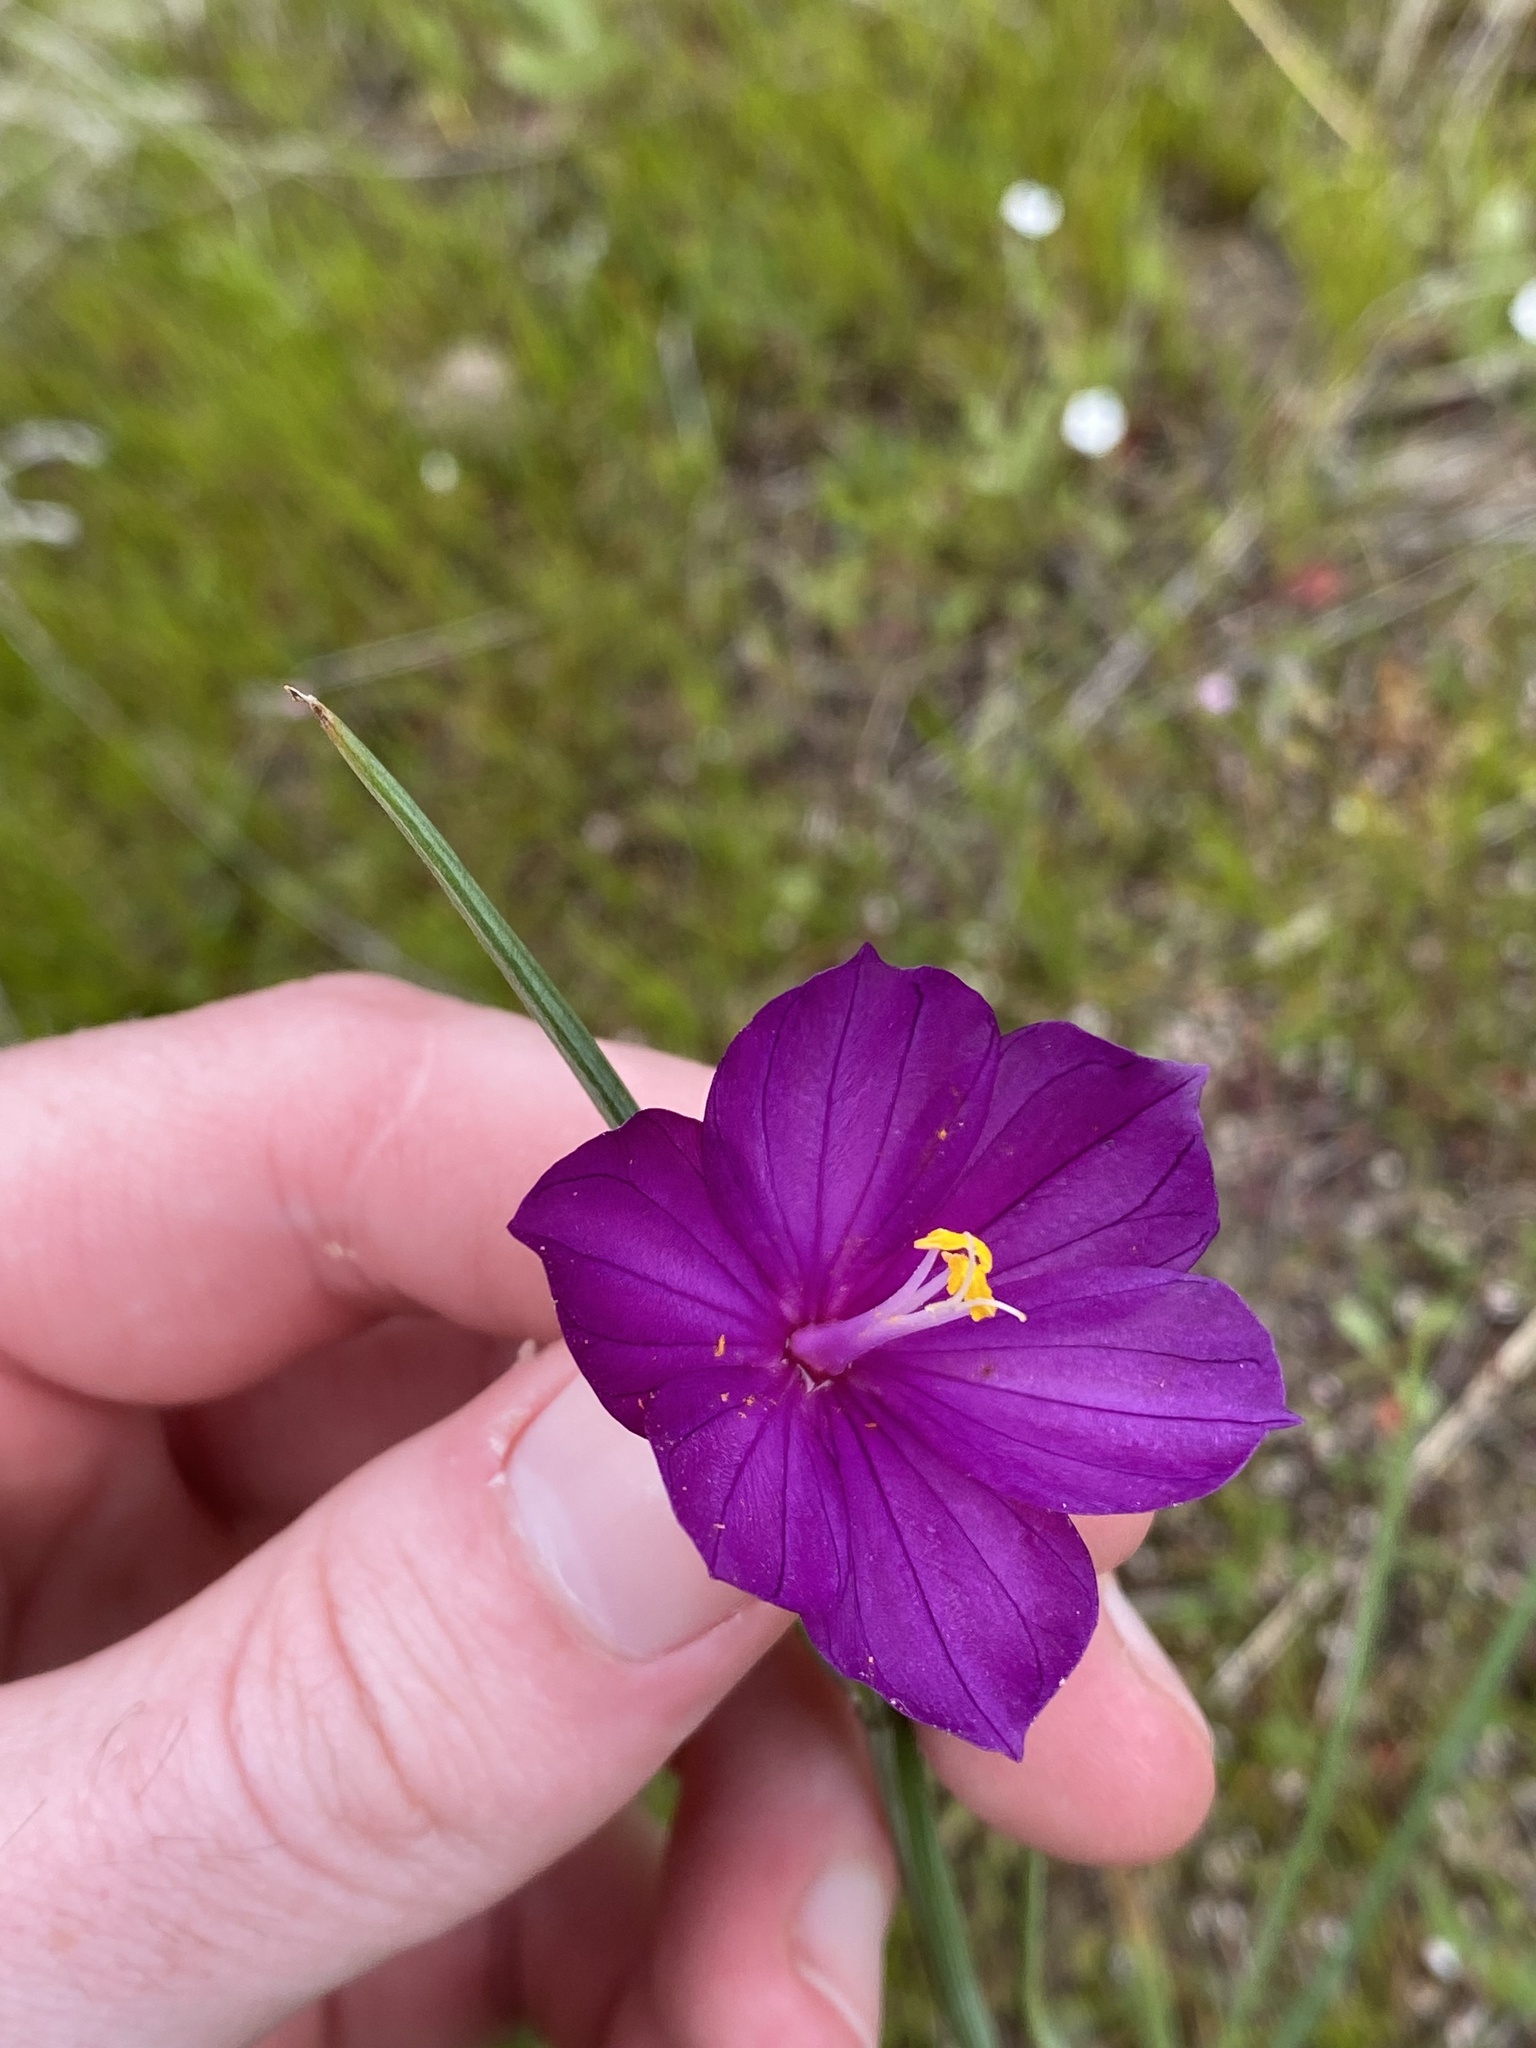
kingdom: Plantae
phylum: Tracheophyta
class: Liliopsida
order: Asparagales
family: Iridaceae
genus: Olsynium
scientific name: Olsynium douglasii
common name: Douglas' grasswidow
